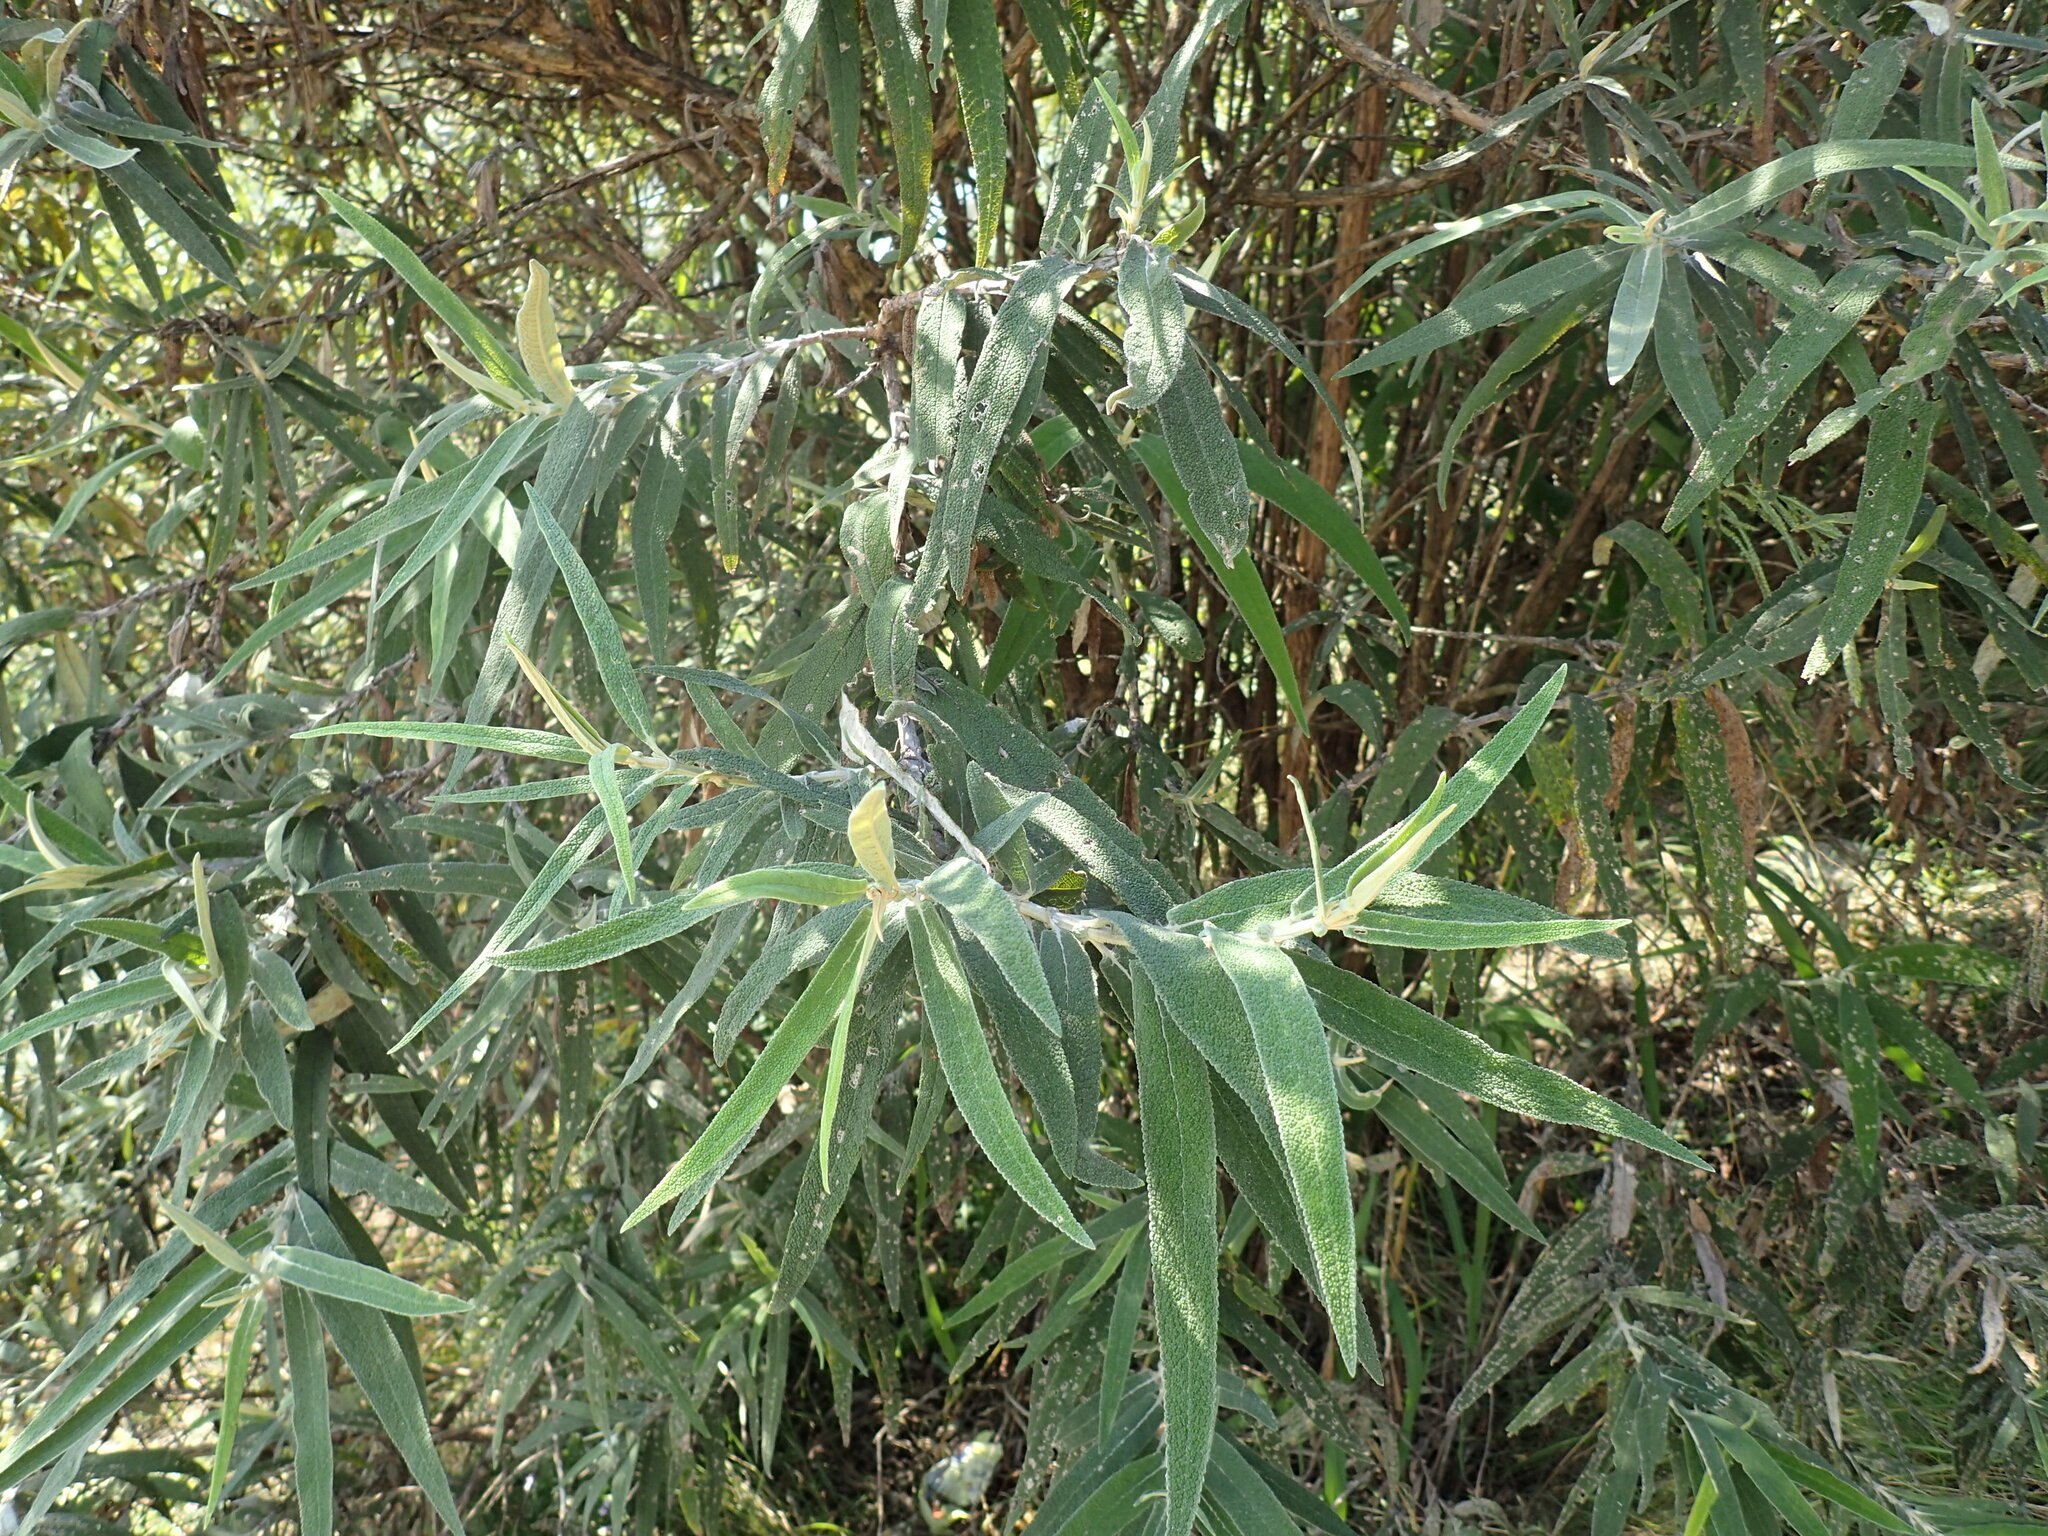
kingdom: Plantae
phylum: Tracheophyta
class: Magnoliopsida
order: Lamiales
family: Scrophulariaceae
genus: Buddleja
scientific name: Buddleja salviifolia
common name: Sagewood
